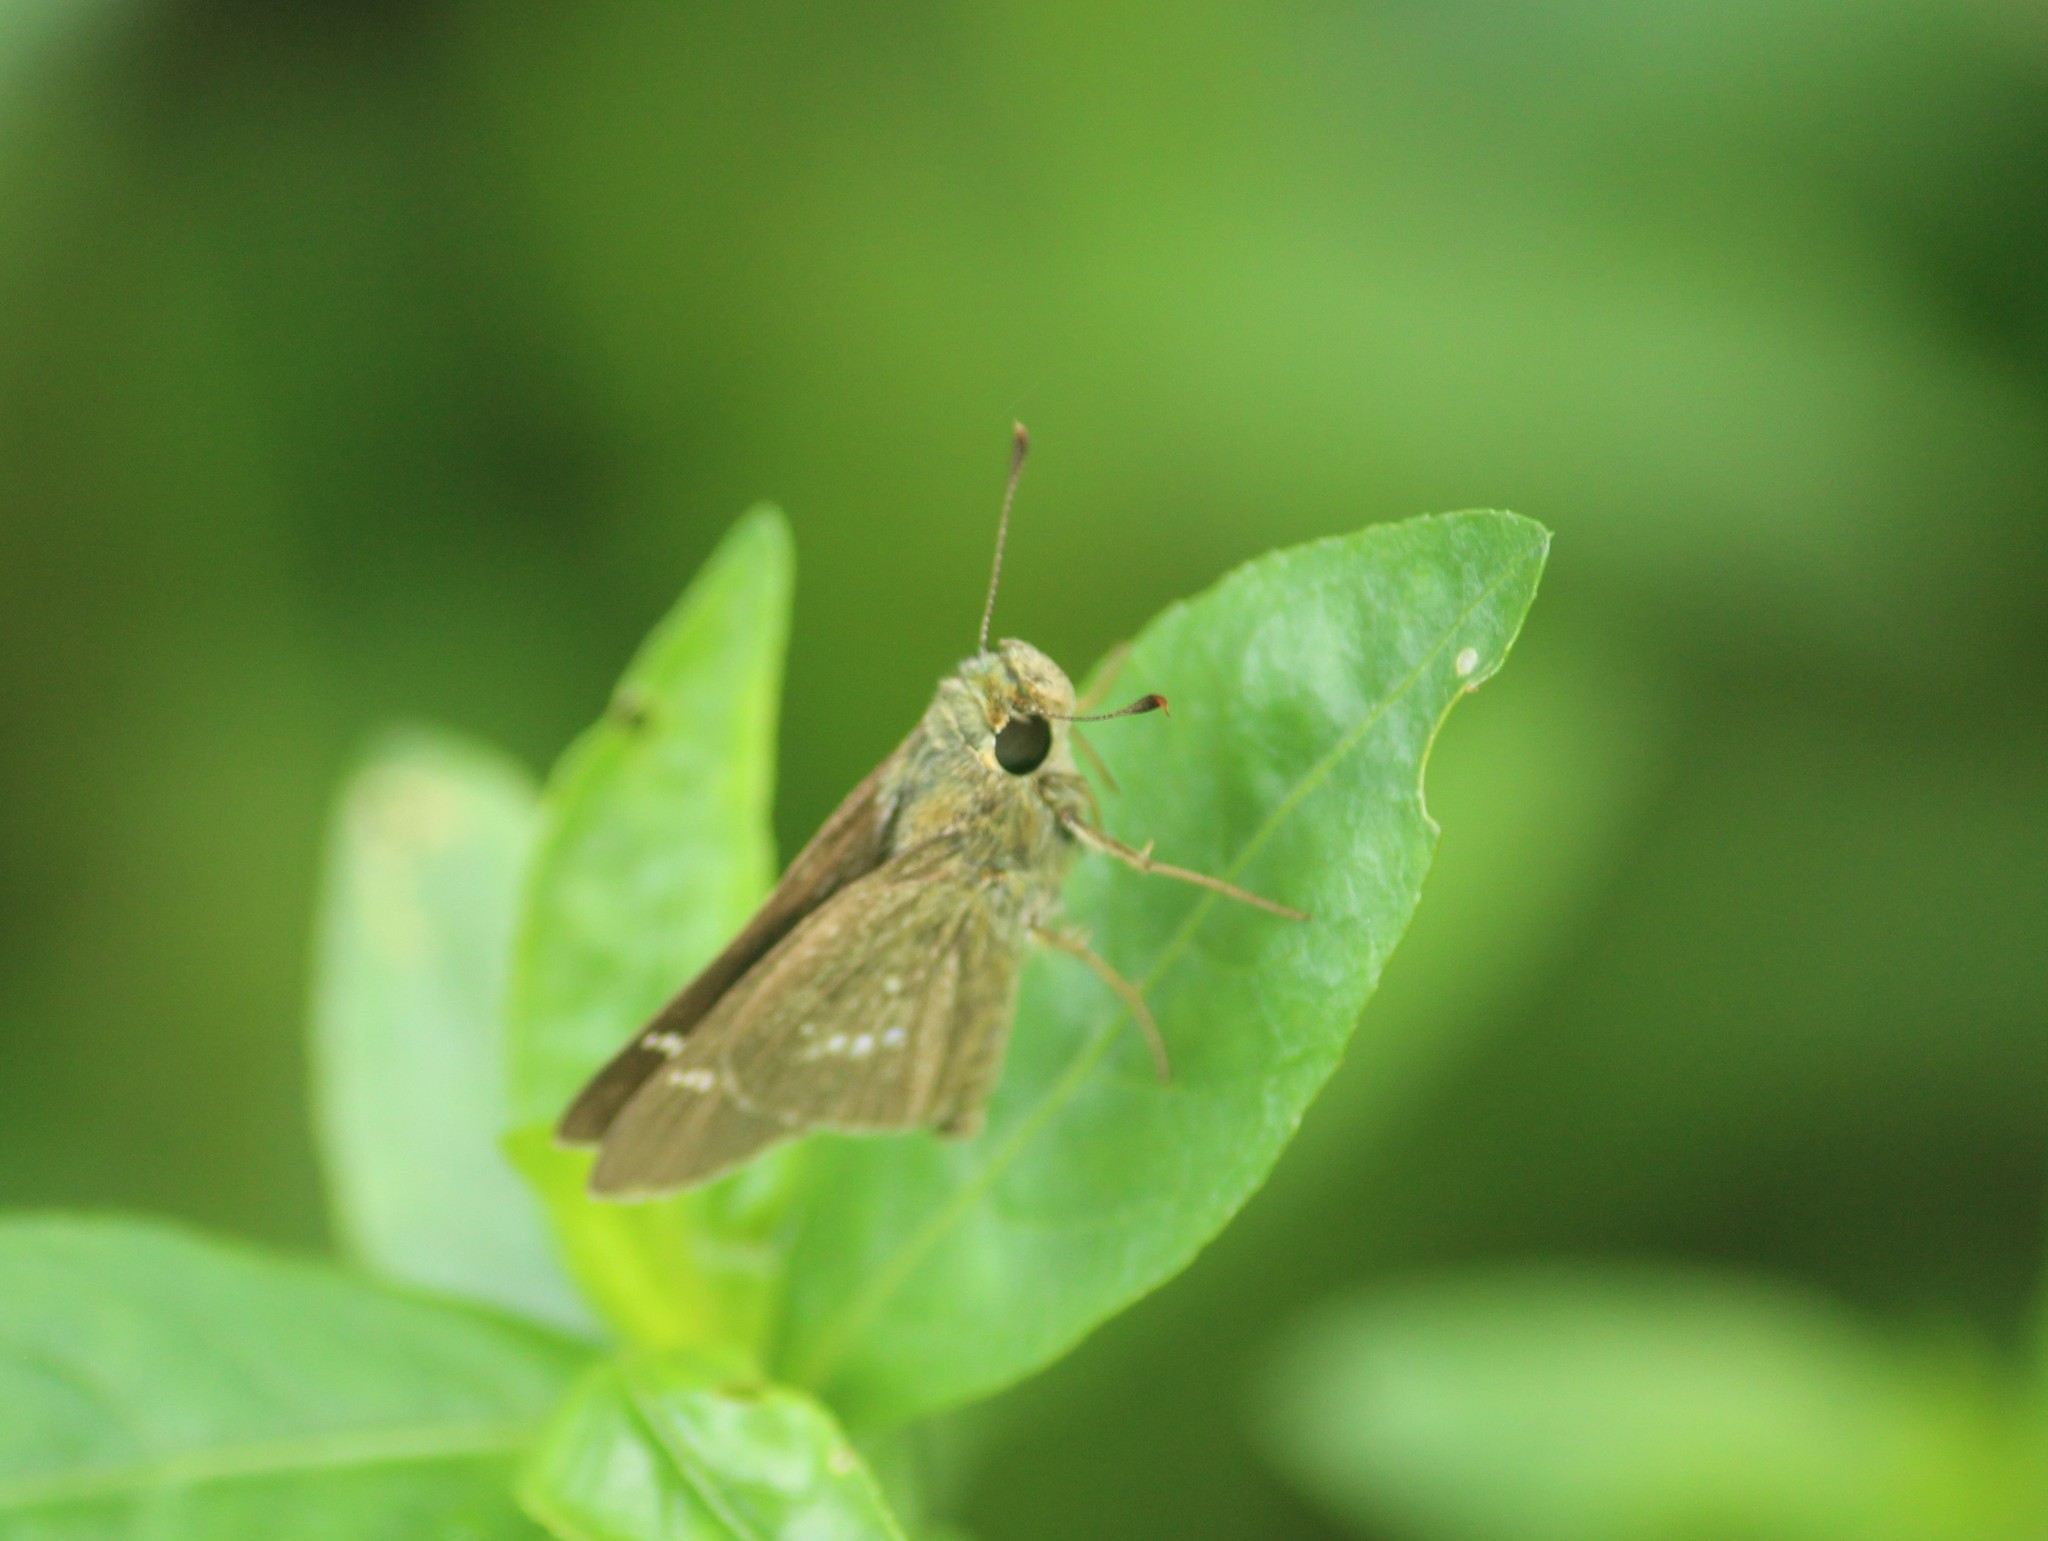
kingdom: Animalia
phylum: Arthropoda
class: Insecta
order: Lepidoptera
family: Hesperiidae
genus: Parnara
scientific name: Parnara naso
